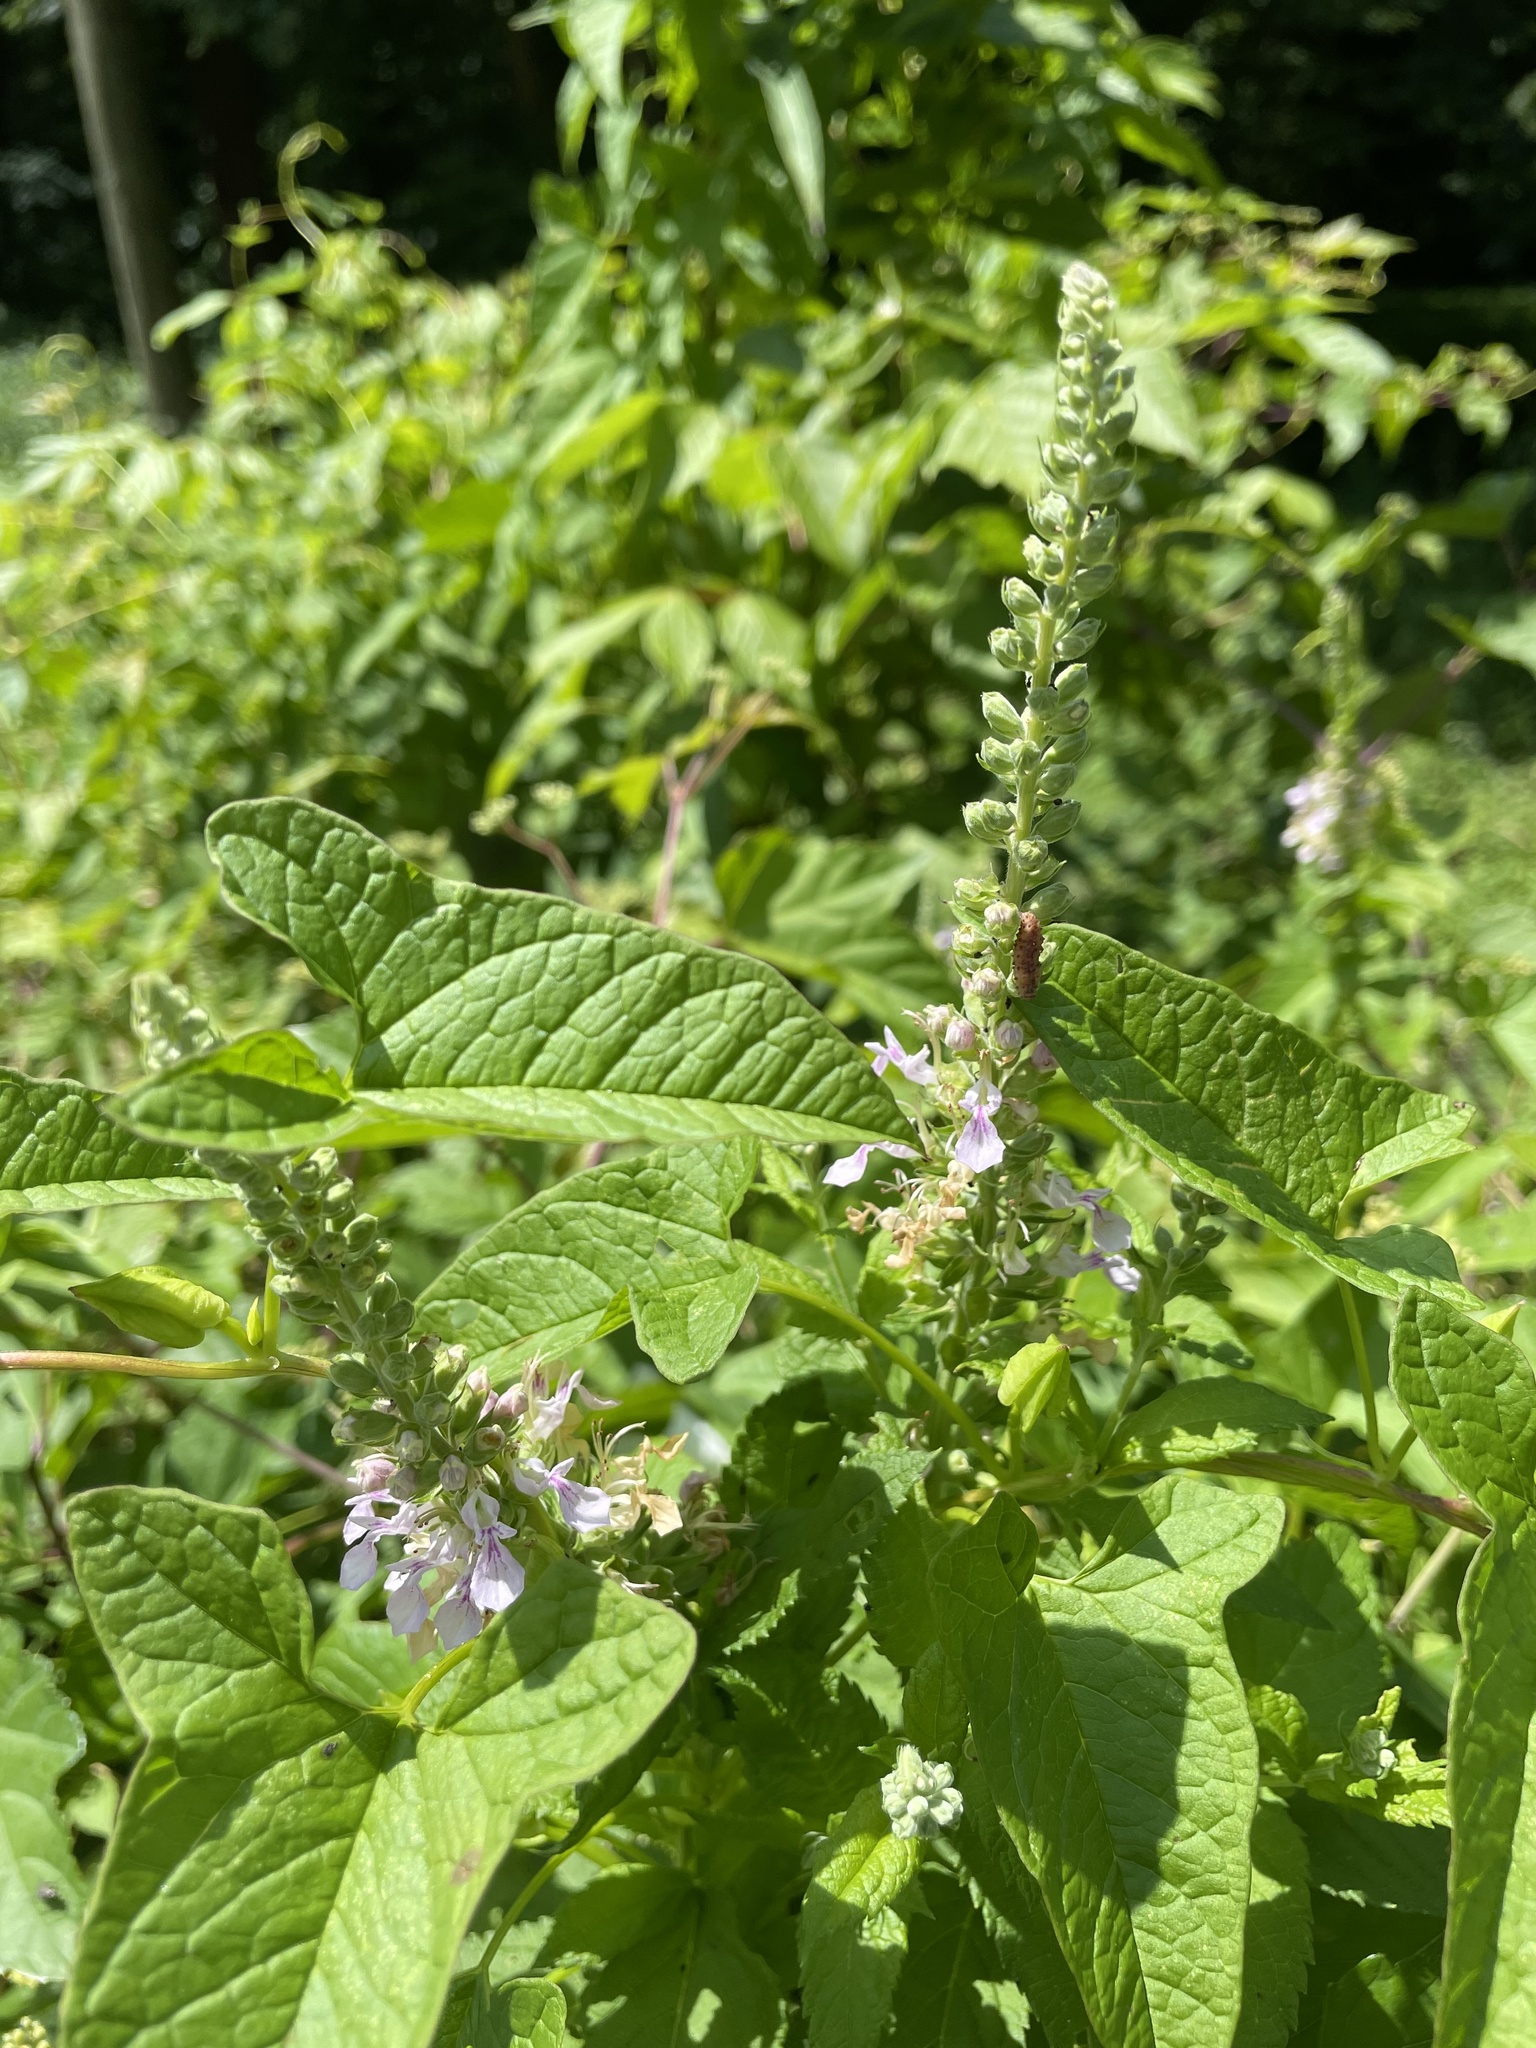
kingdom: Plantae
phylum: Tracheophyta
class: Magnoliopsida
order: Lamiales
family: Lamiaceae
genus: Teucrium
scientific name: Teucrium canadense
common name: American germander
